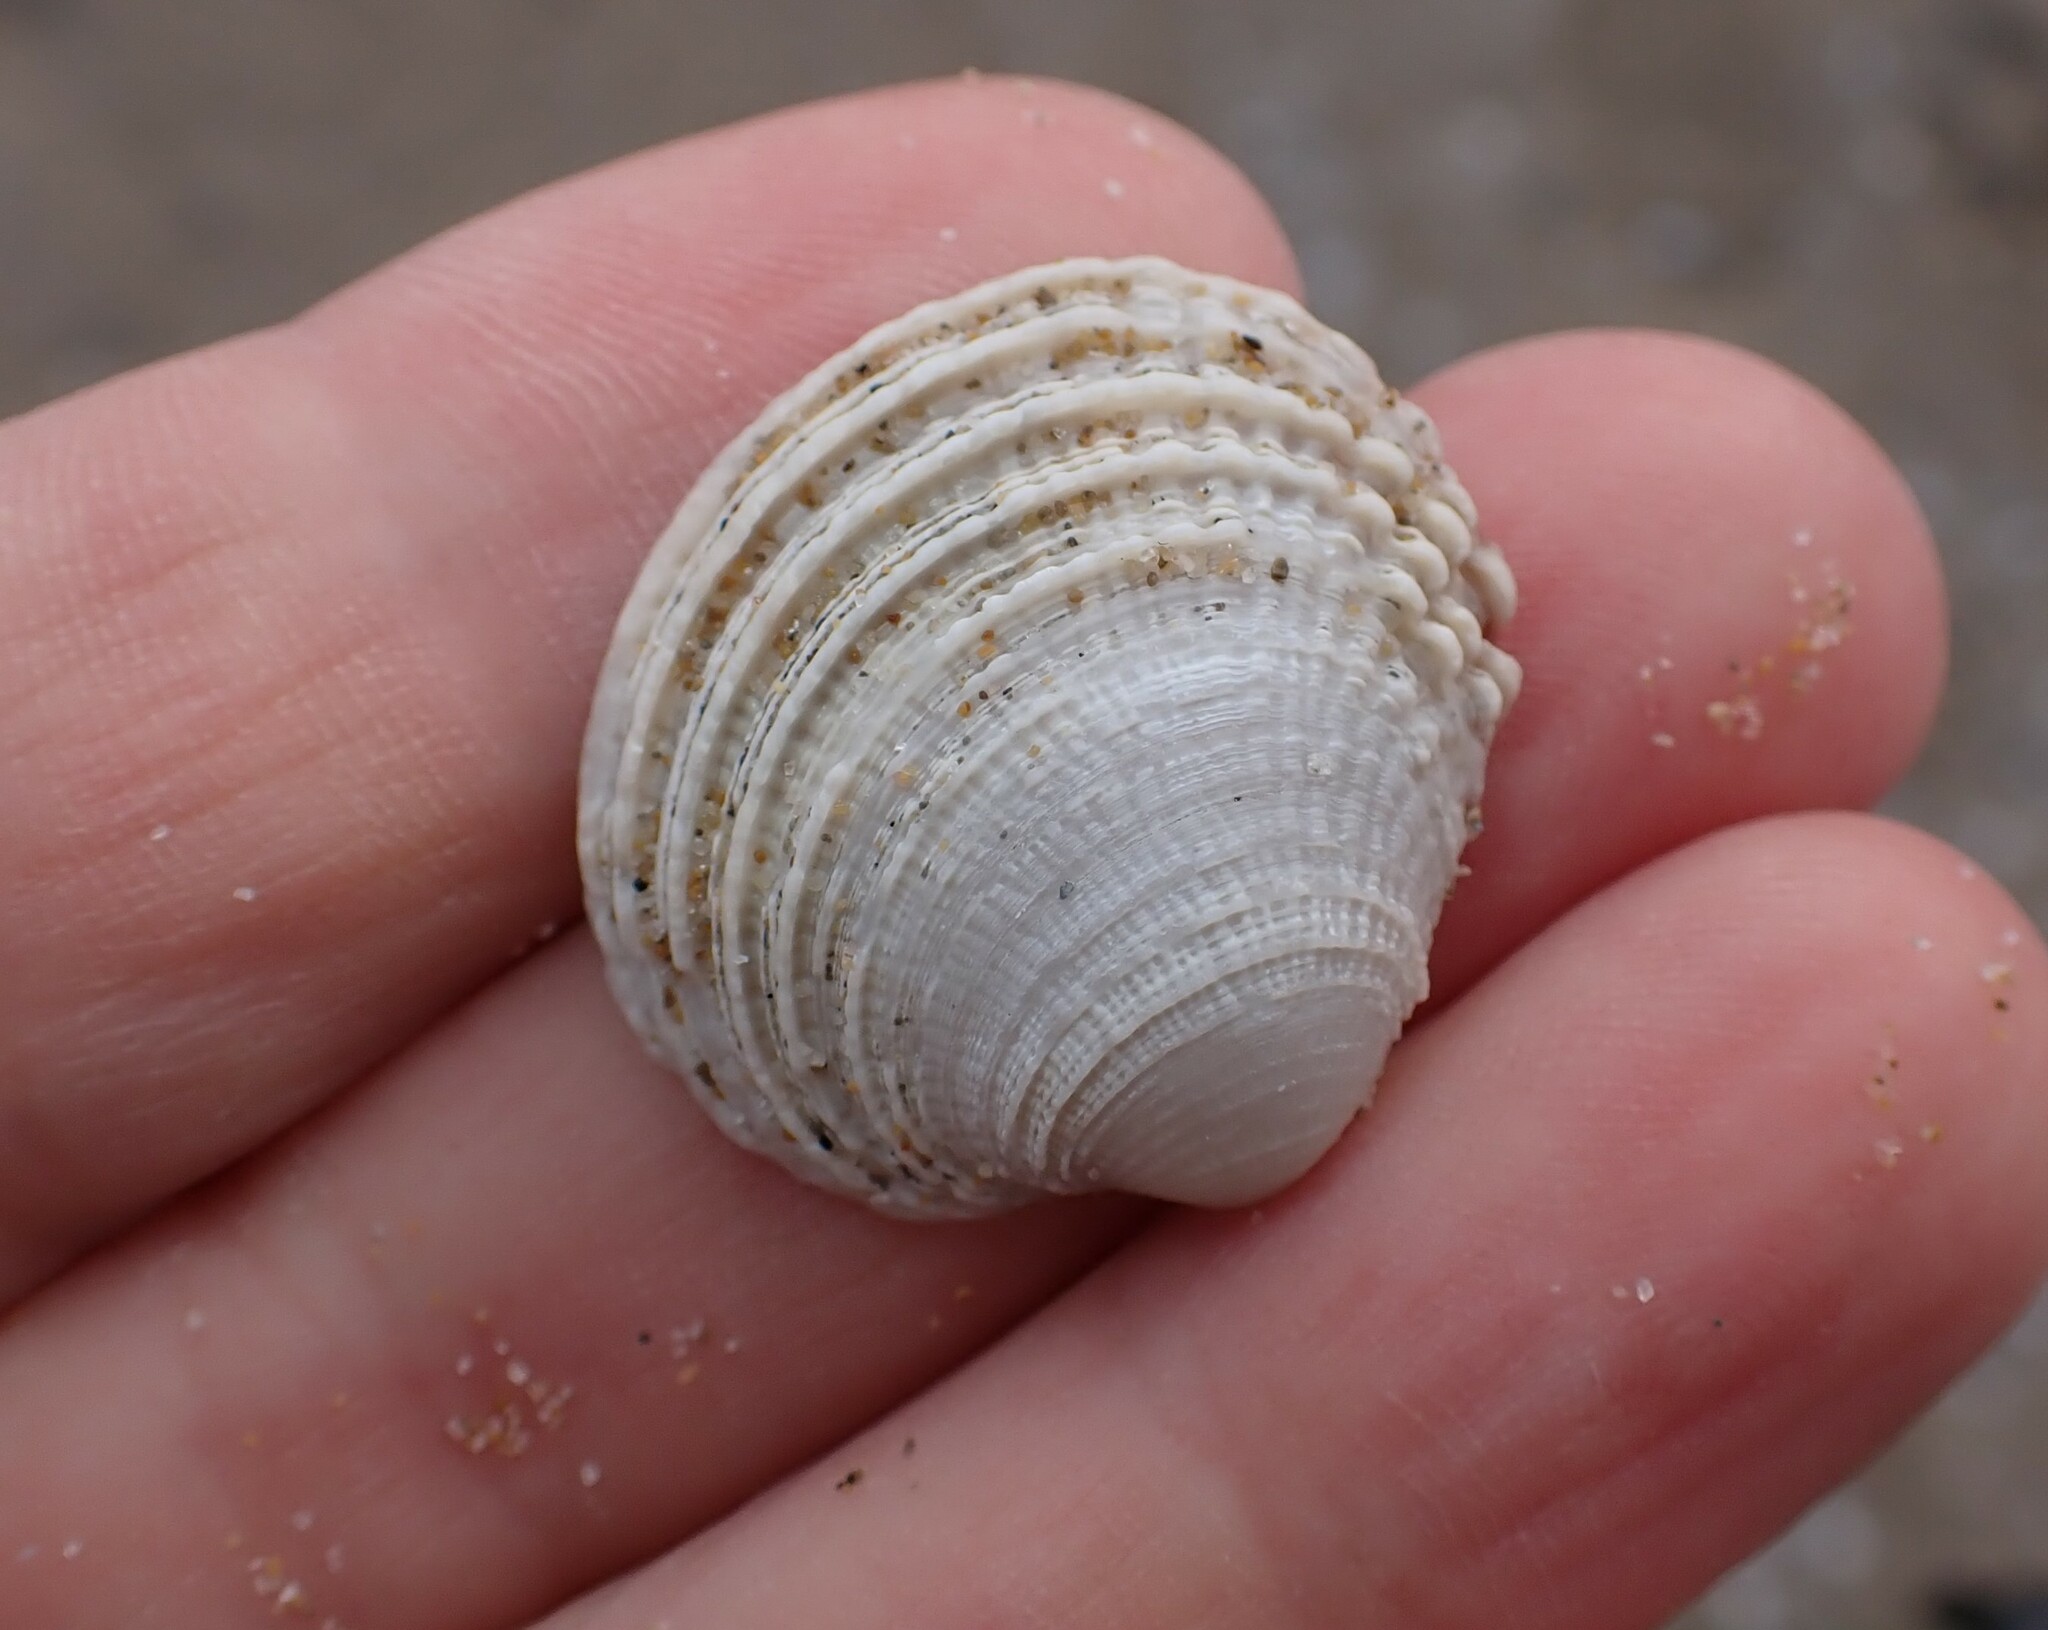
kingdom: Animalia
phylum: Mollusca
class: Bivalvia
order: Venerida
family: Veneridae
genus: Venus
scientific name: Venus verrucosa
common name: Warty venus
